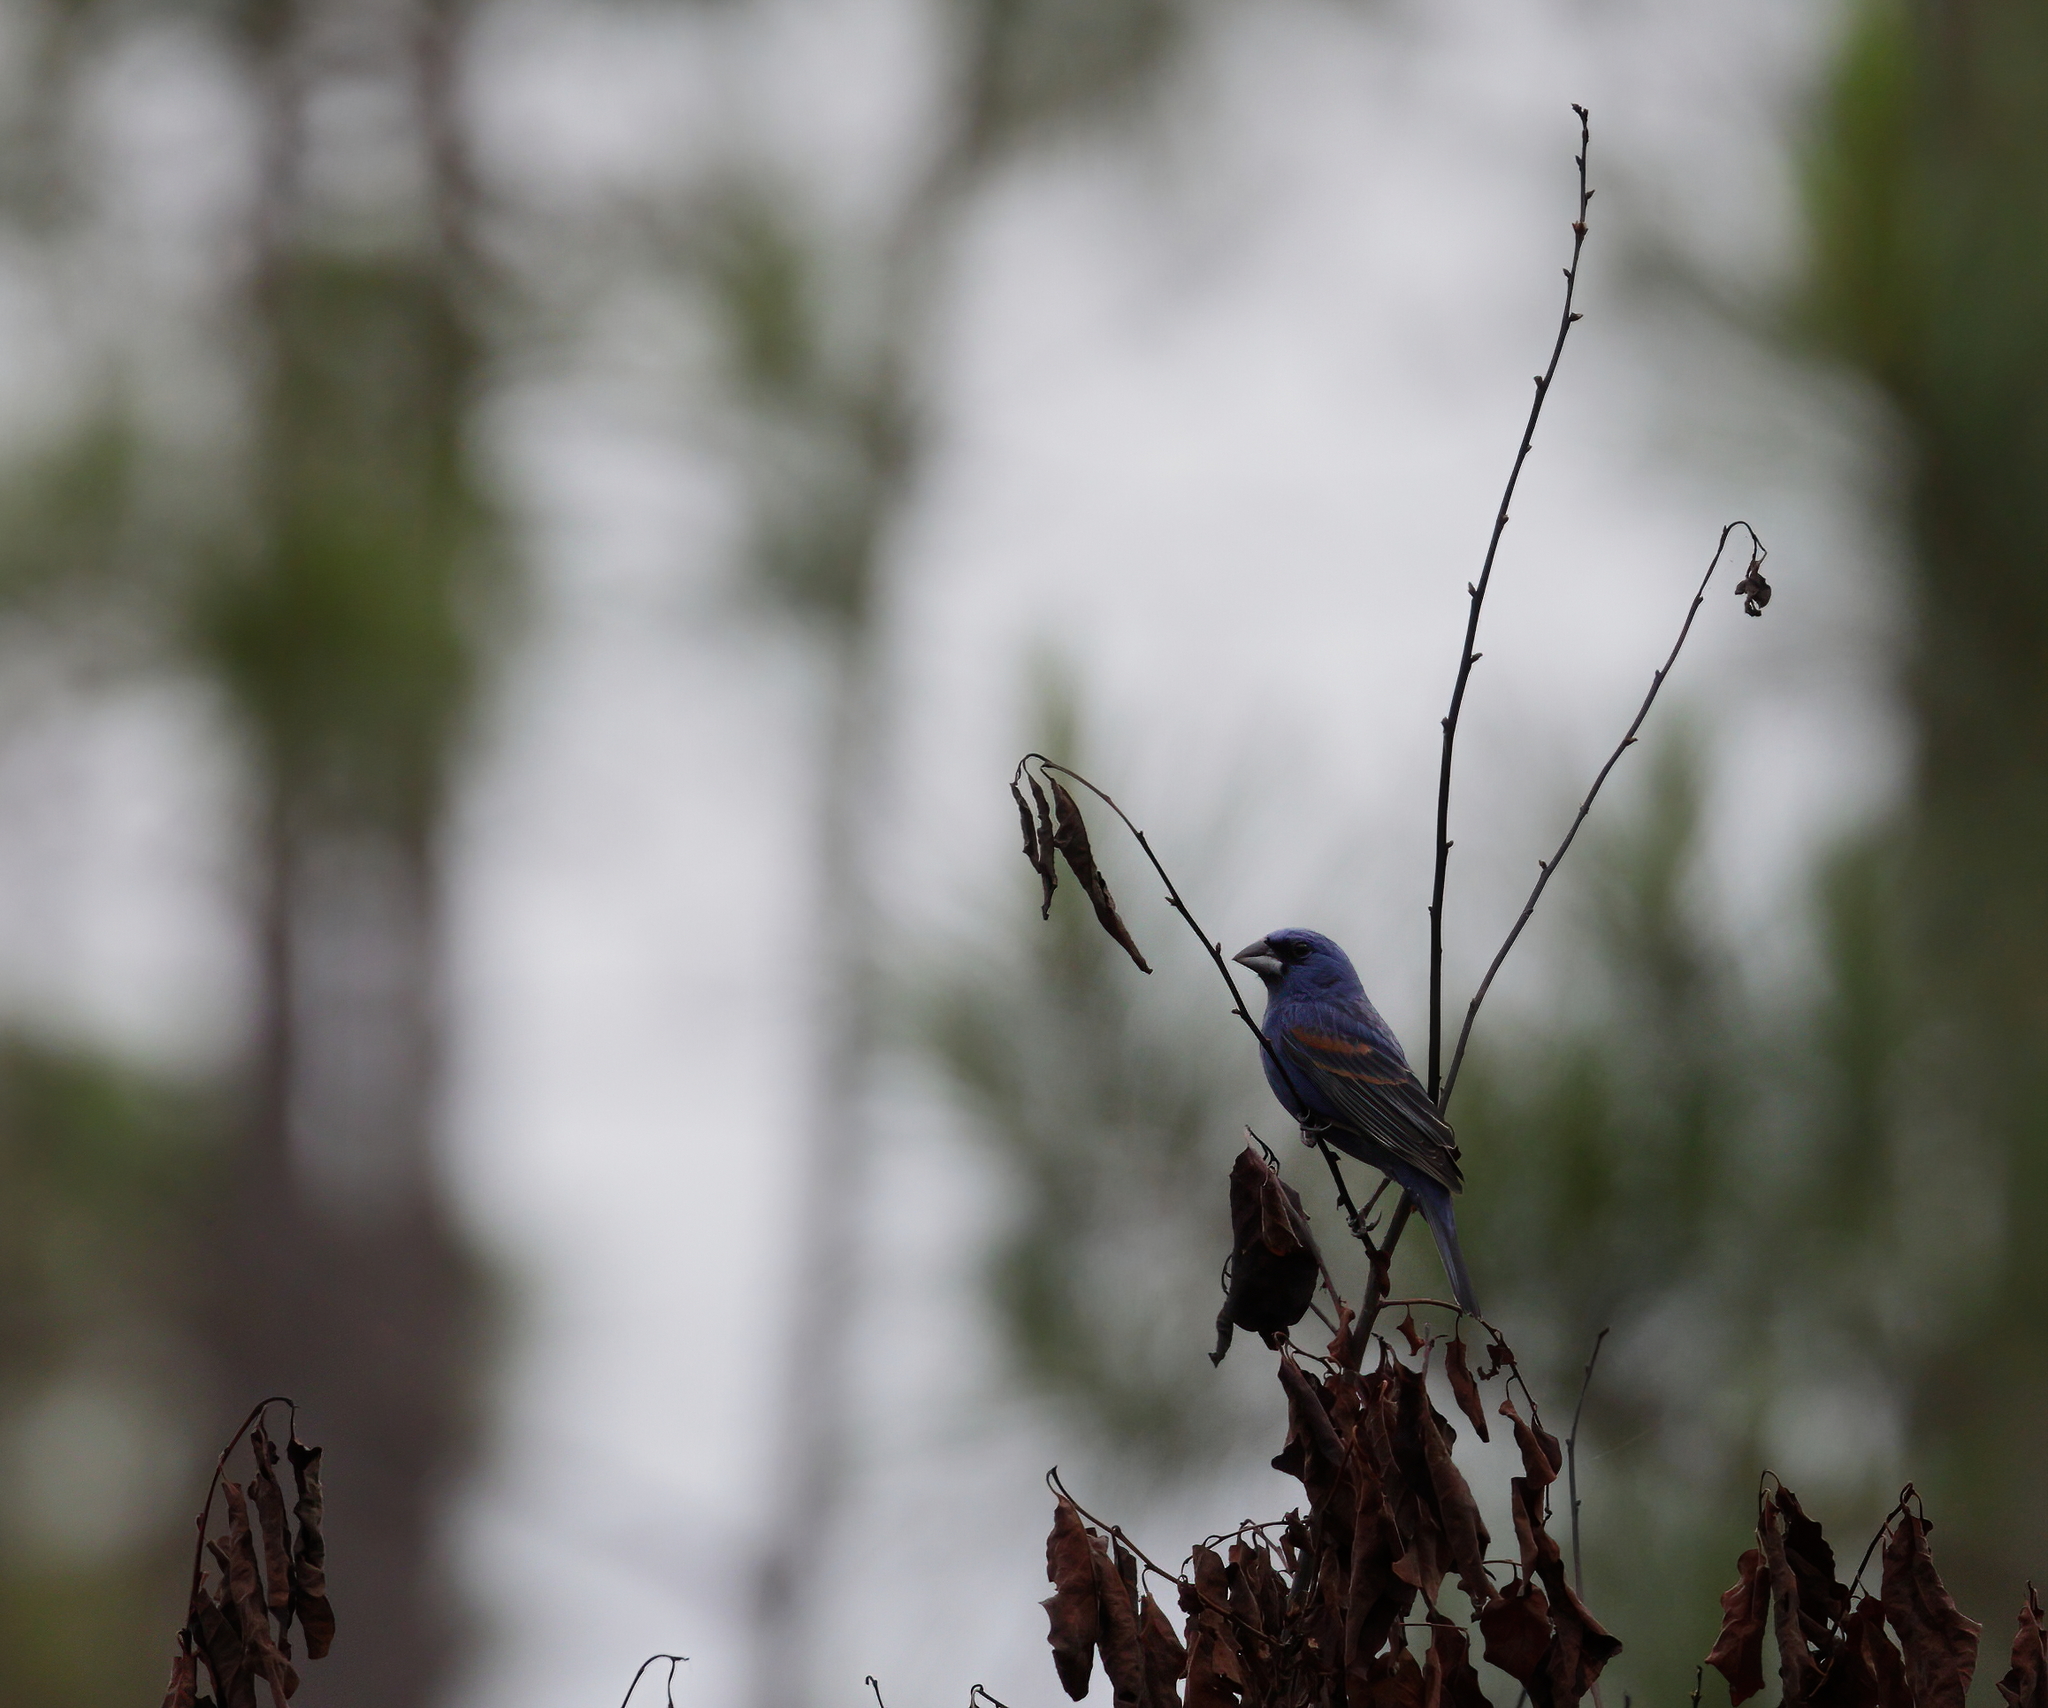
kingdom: Animalia
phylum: Chordata
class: Aves
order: Passeriformes
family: Cardinalidae
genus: Passerina
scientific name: Passerina caerulea
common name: Blue grosbeak
